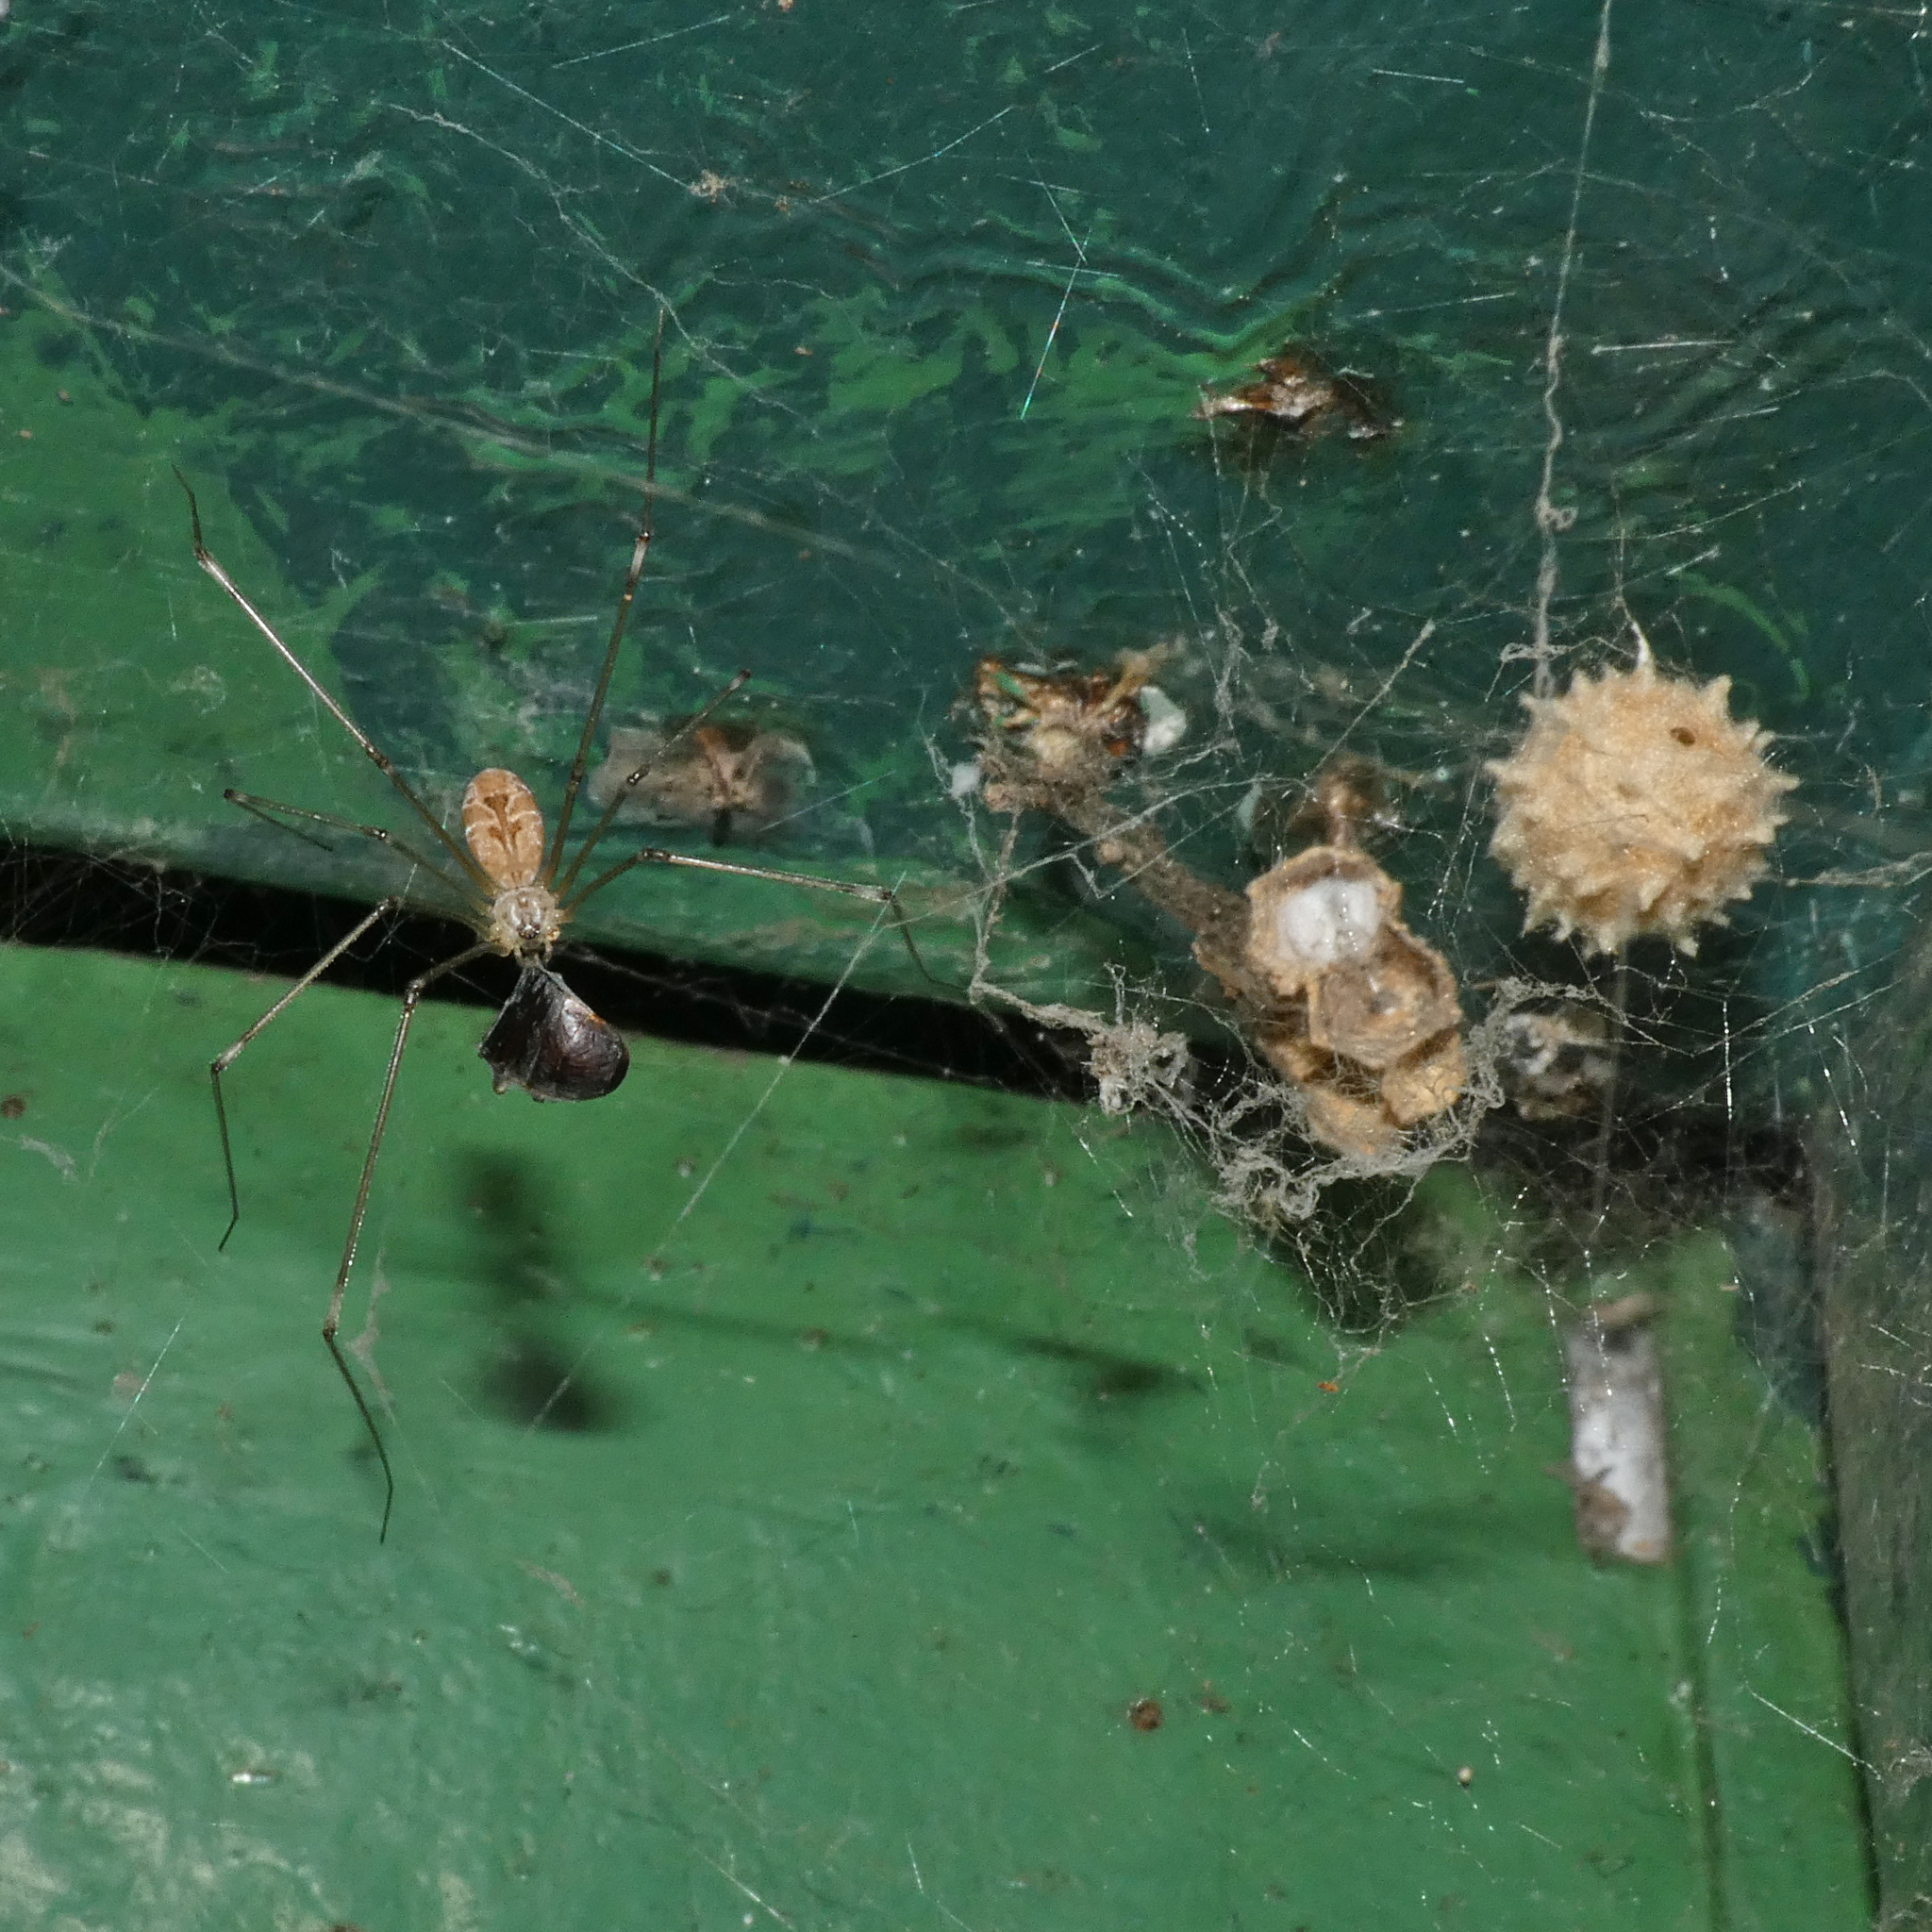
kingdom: Animalia
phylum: Arthropoda
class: Arachnida
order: Araneae
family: Theridiidae
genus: Latrodectus
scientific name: Latrodectus geometricus
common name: Brown widow spider
